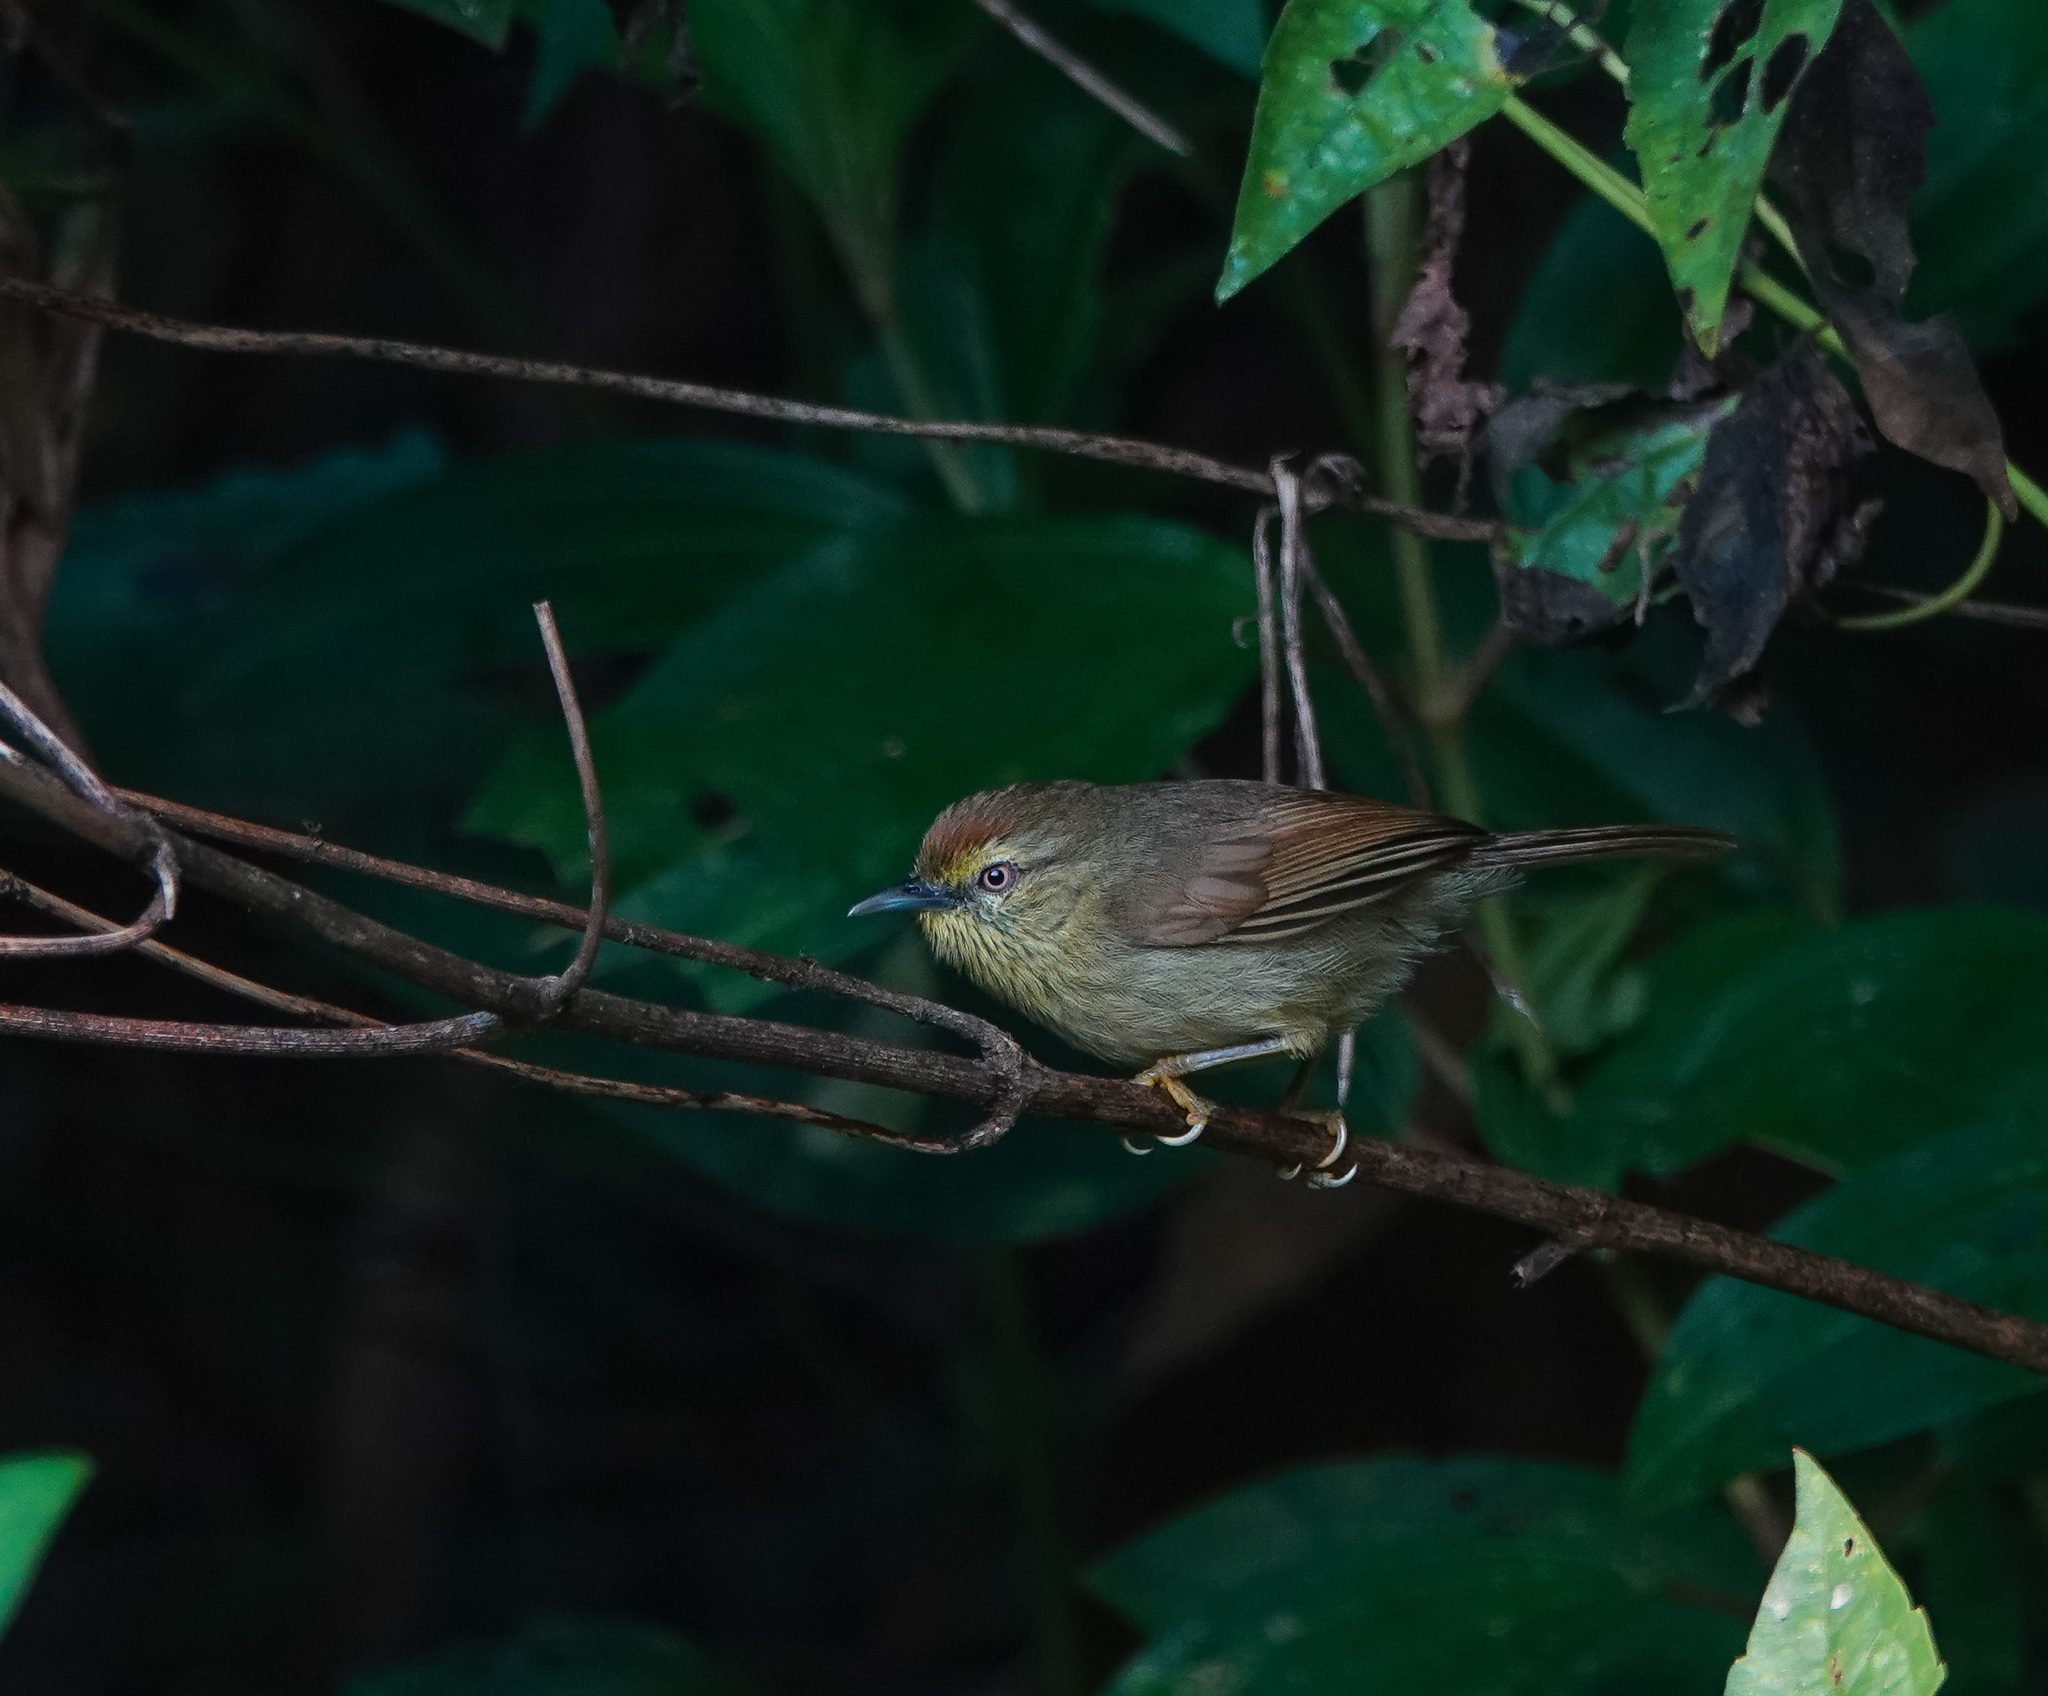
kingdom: Animalia
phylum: Chordata
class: Aves
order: Passeriformes
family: Timaliidae
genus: Macronus
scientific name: Macronus gularis
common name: Striped tit-babbler
